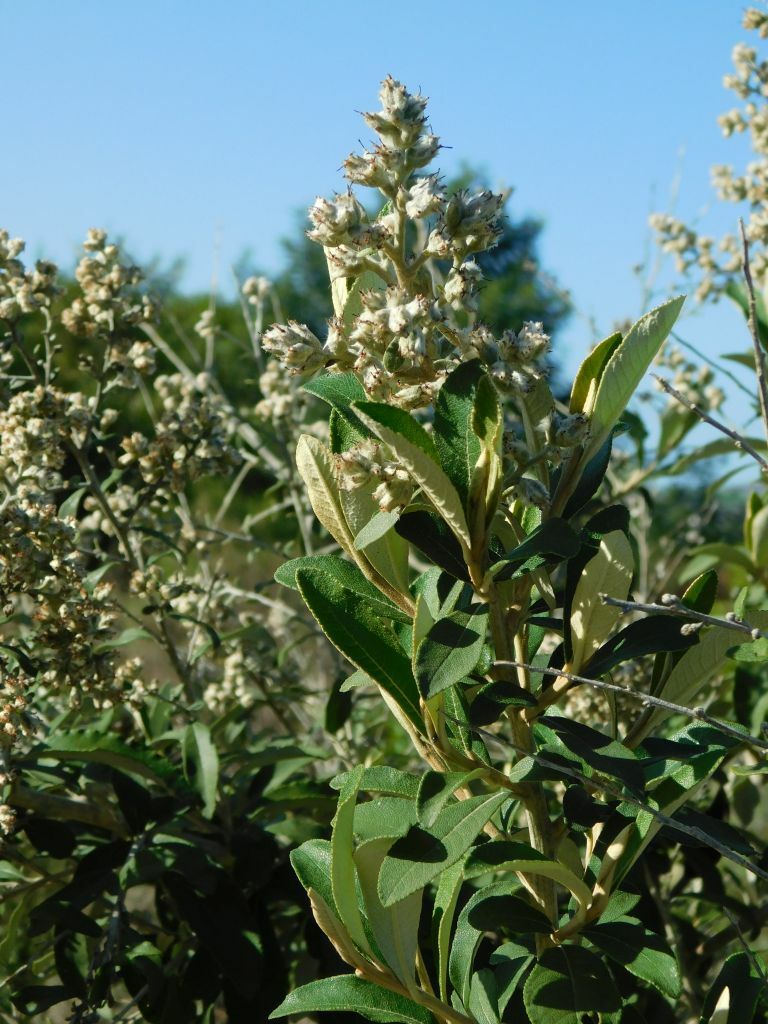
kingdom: Plantae
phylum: Tracheophyta
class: Magnoliopsida
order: Asterales
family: Asteraceae
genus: Tarchonanthus
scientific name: Tarchonanthus littoralis
